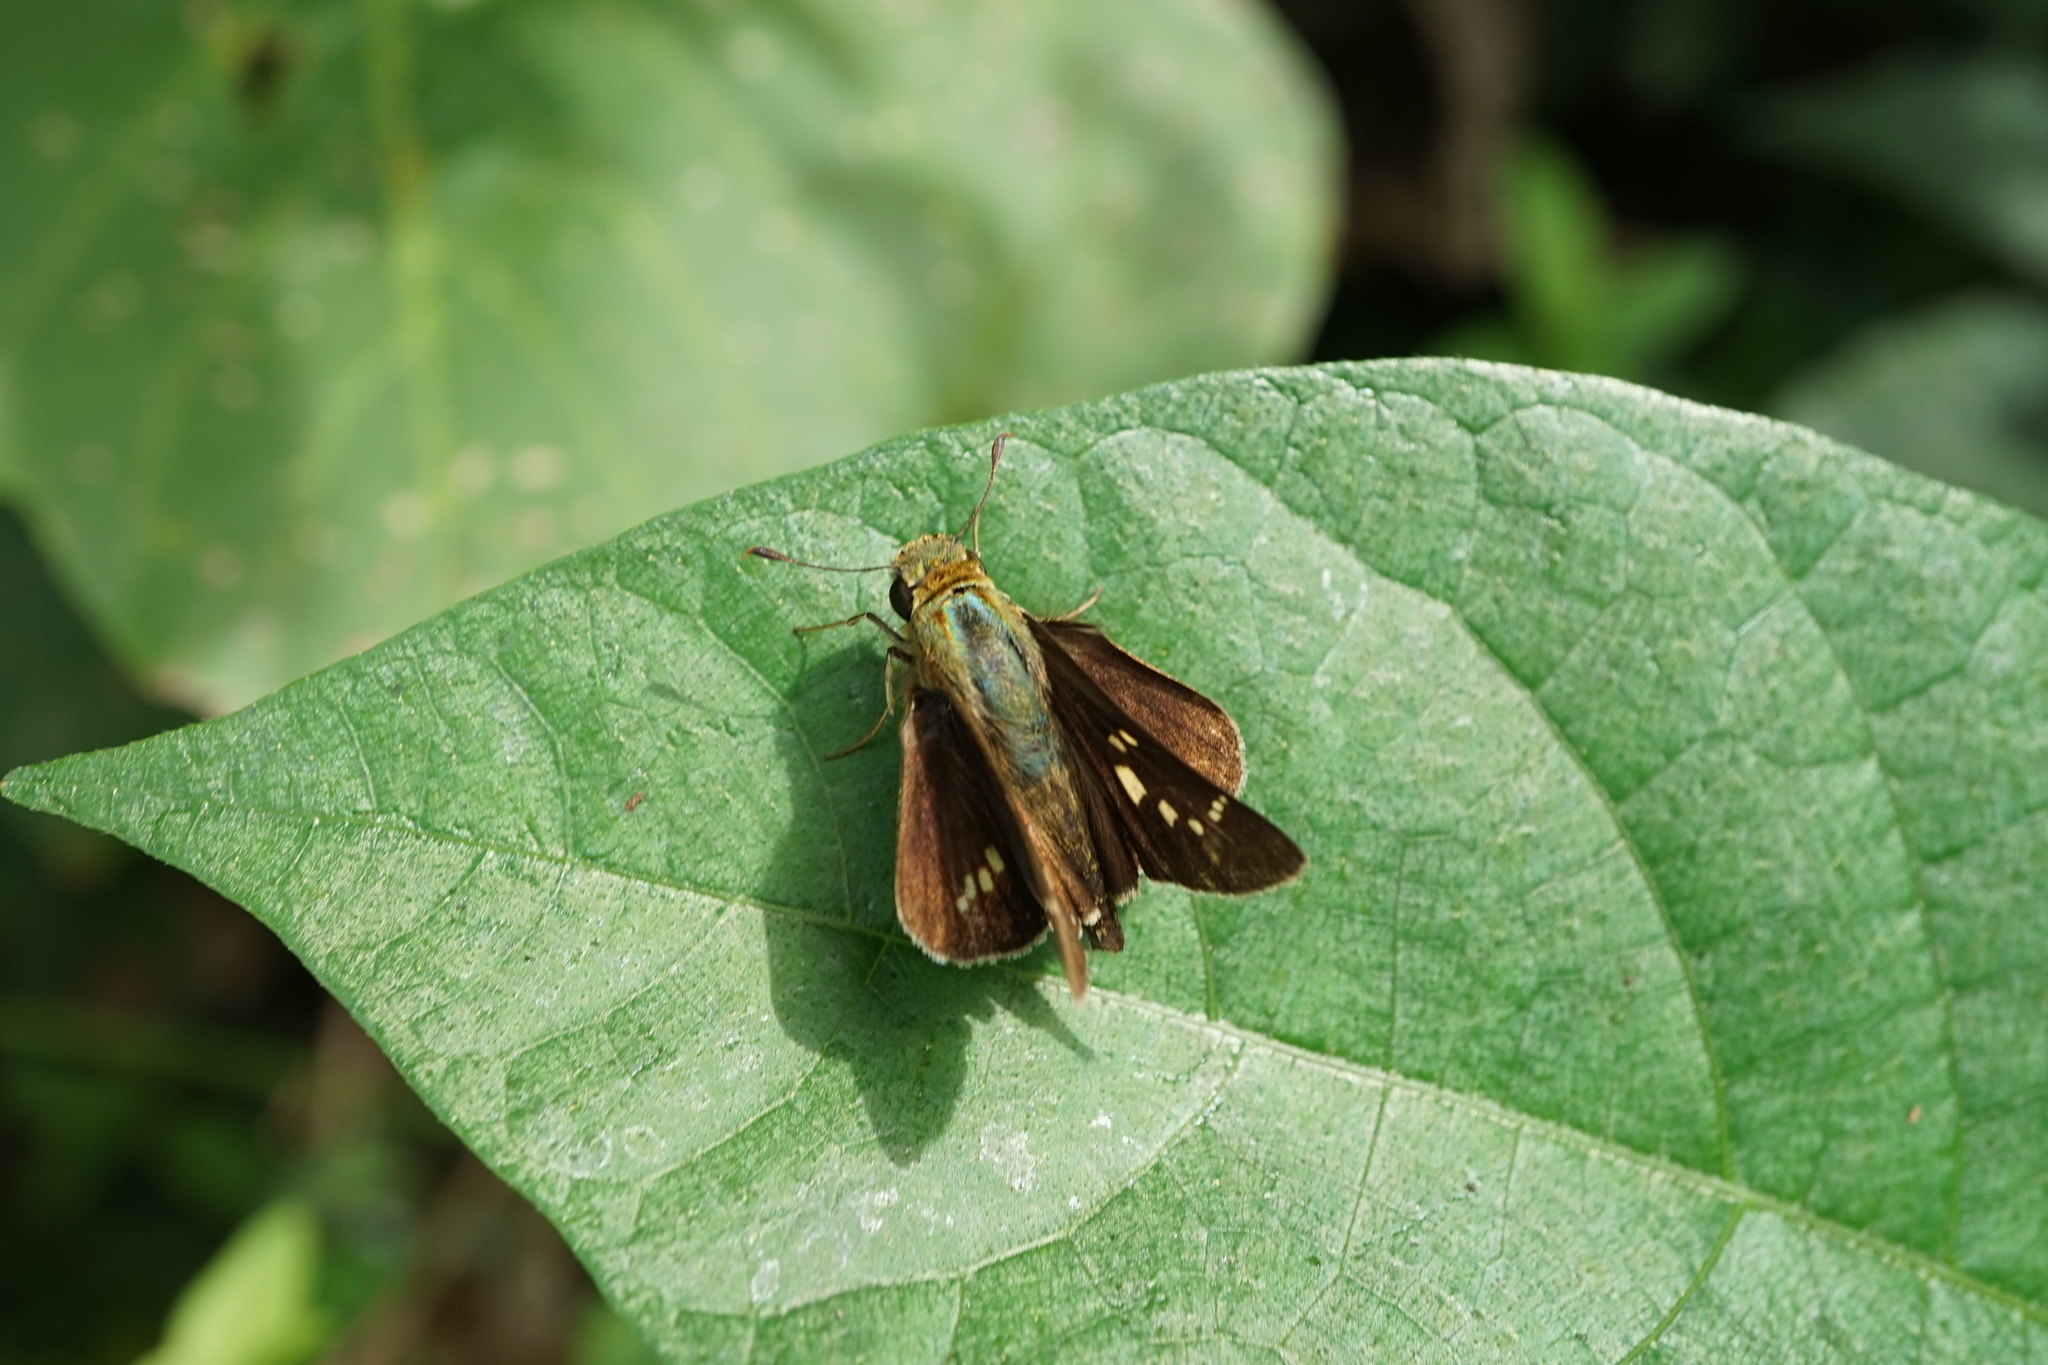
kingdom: Animalia
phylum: Arthropoda
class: Insecta
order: Lepidoptera
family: Hesperiidae
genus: Parnara
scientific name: Parnara guttatus
